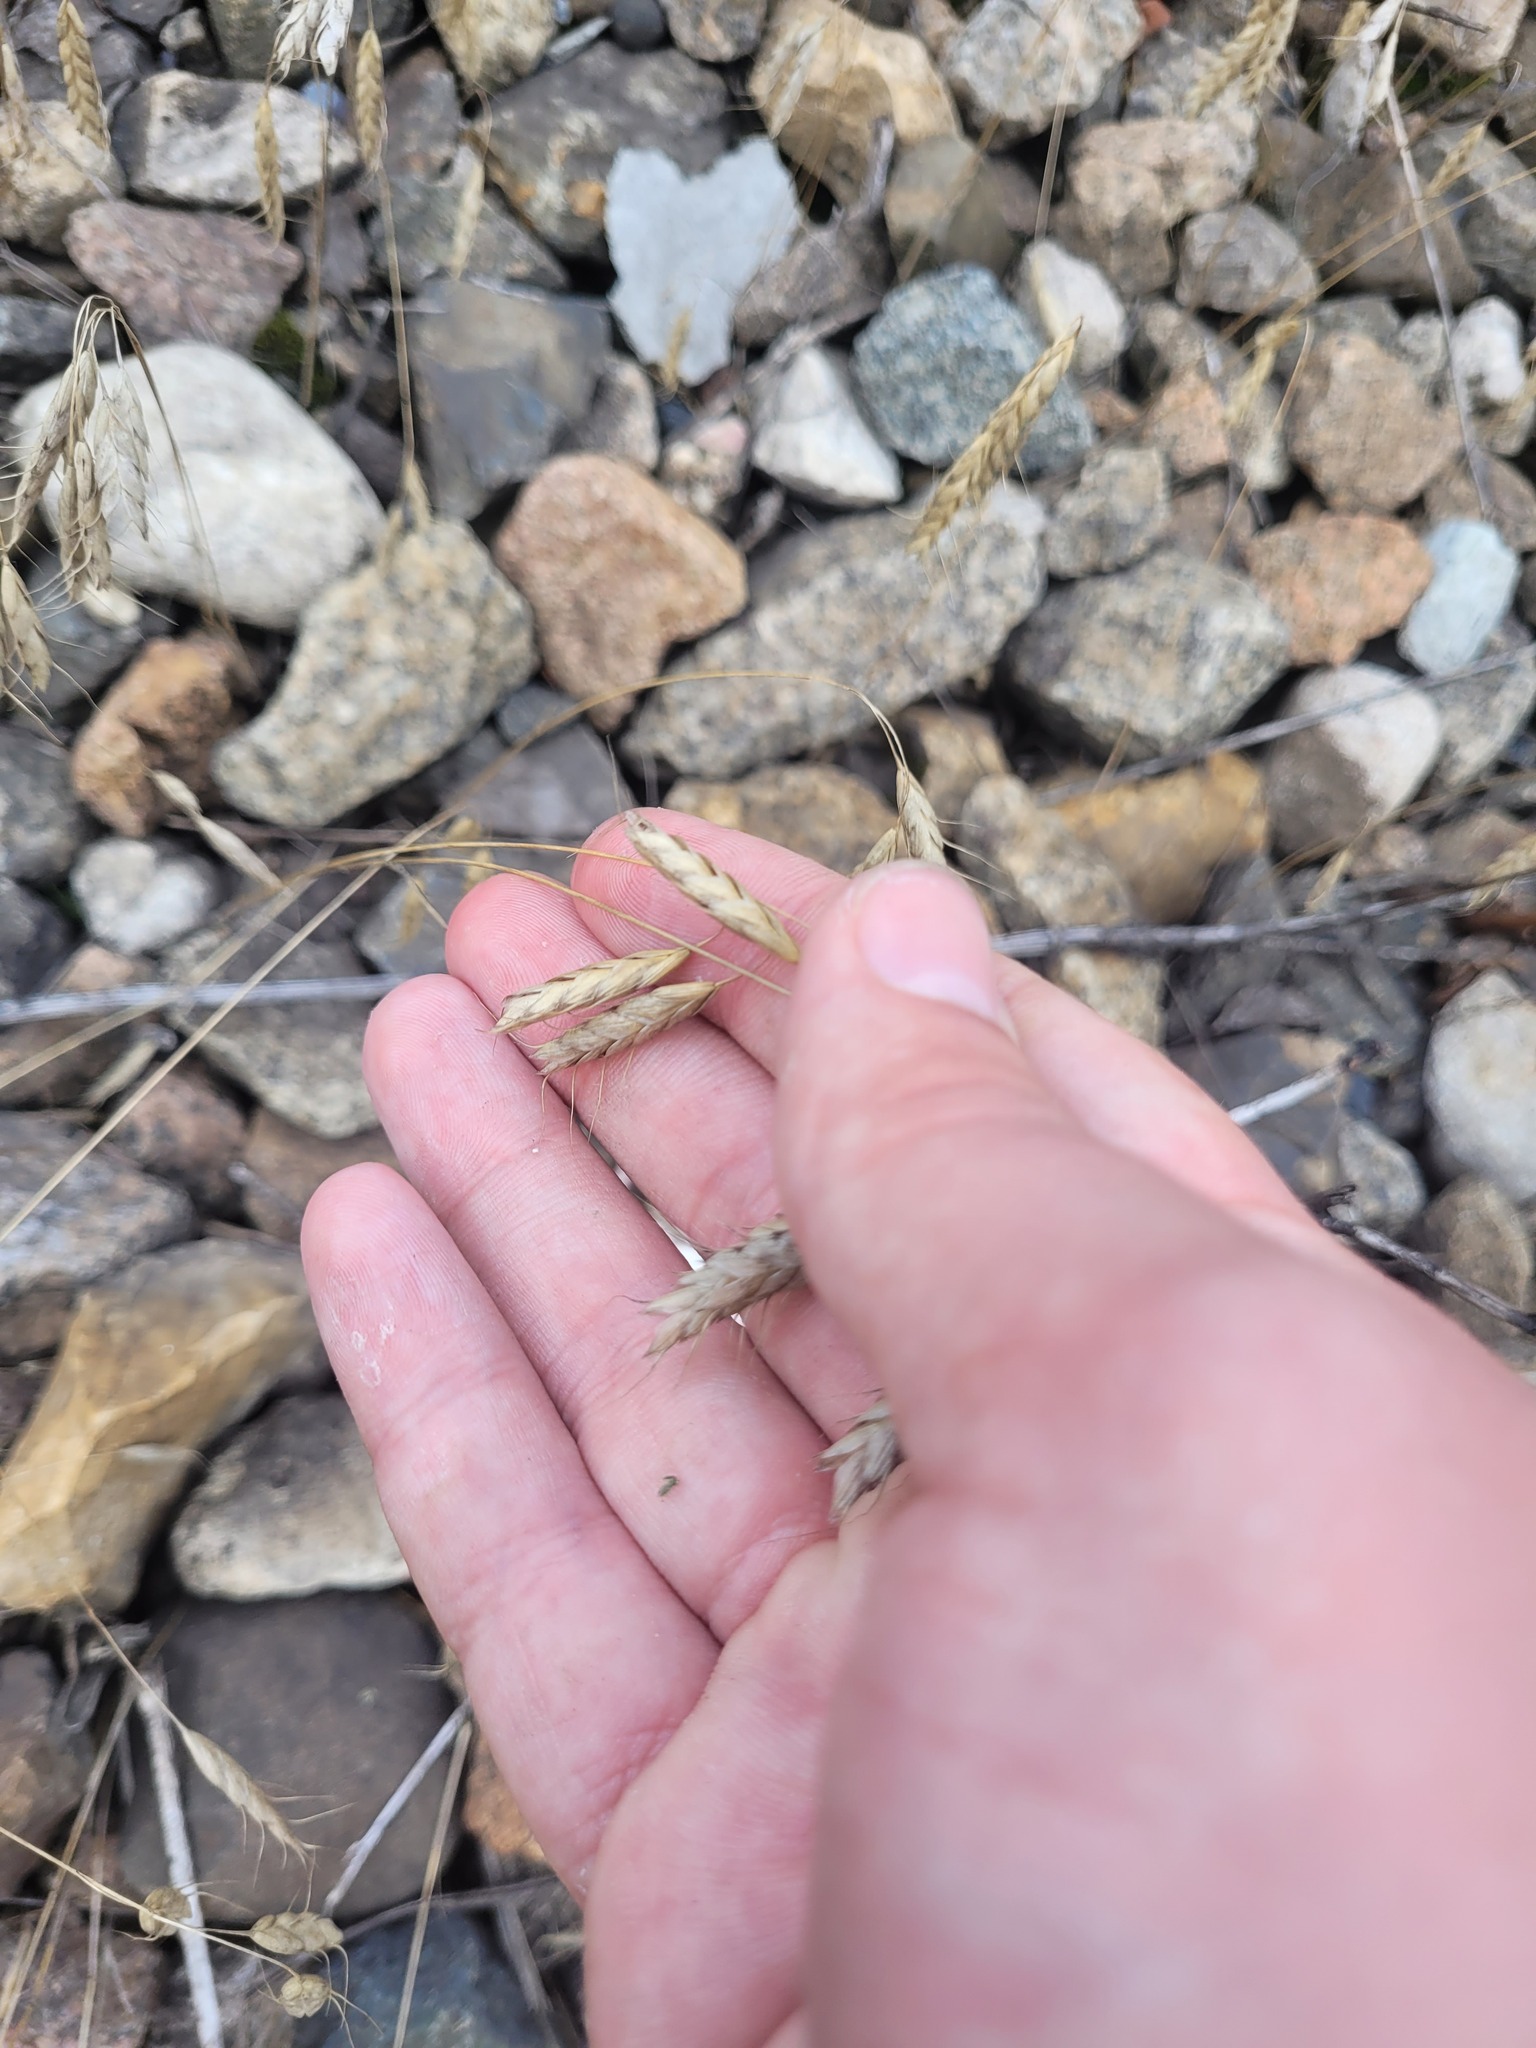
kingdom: Plantae
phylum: Tracheophyta
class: Liliopsida
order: Poales
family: Poaceae
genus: Bromus
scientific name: Bromus squarrosus
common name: Corn brome
